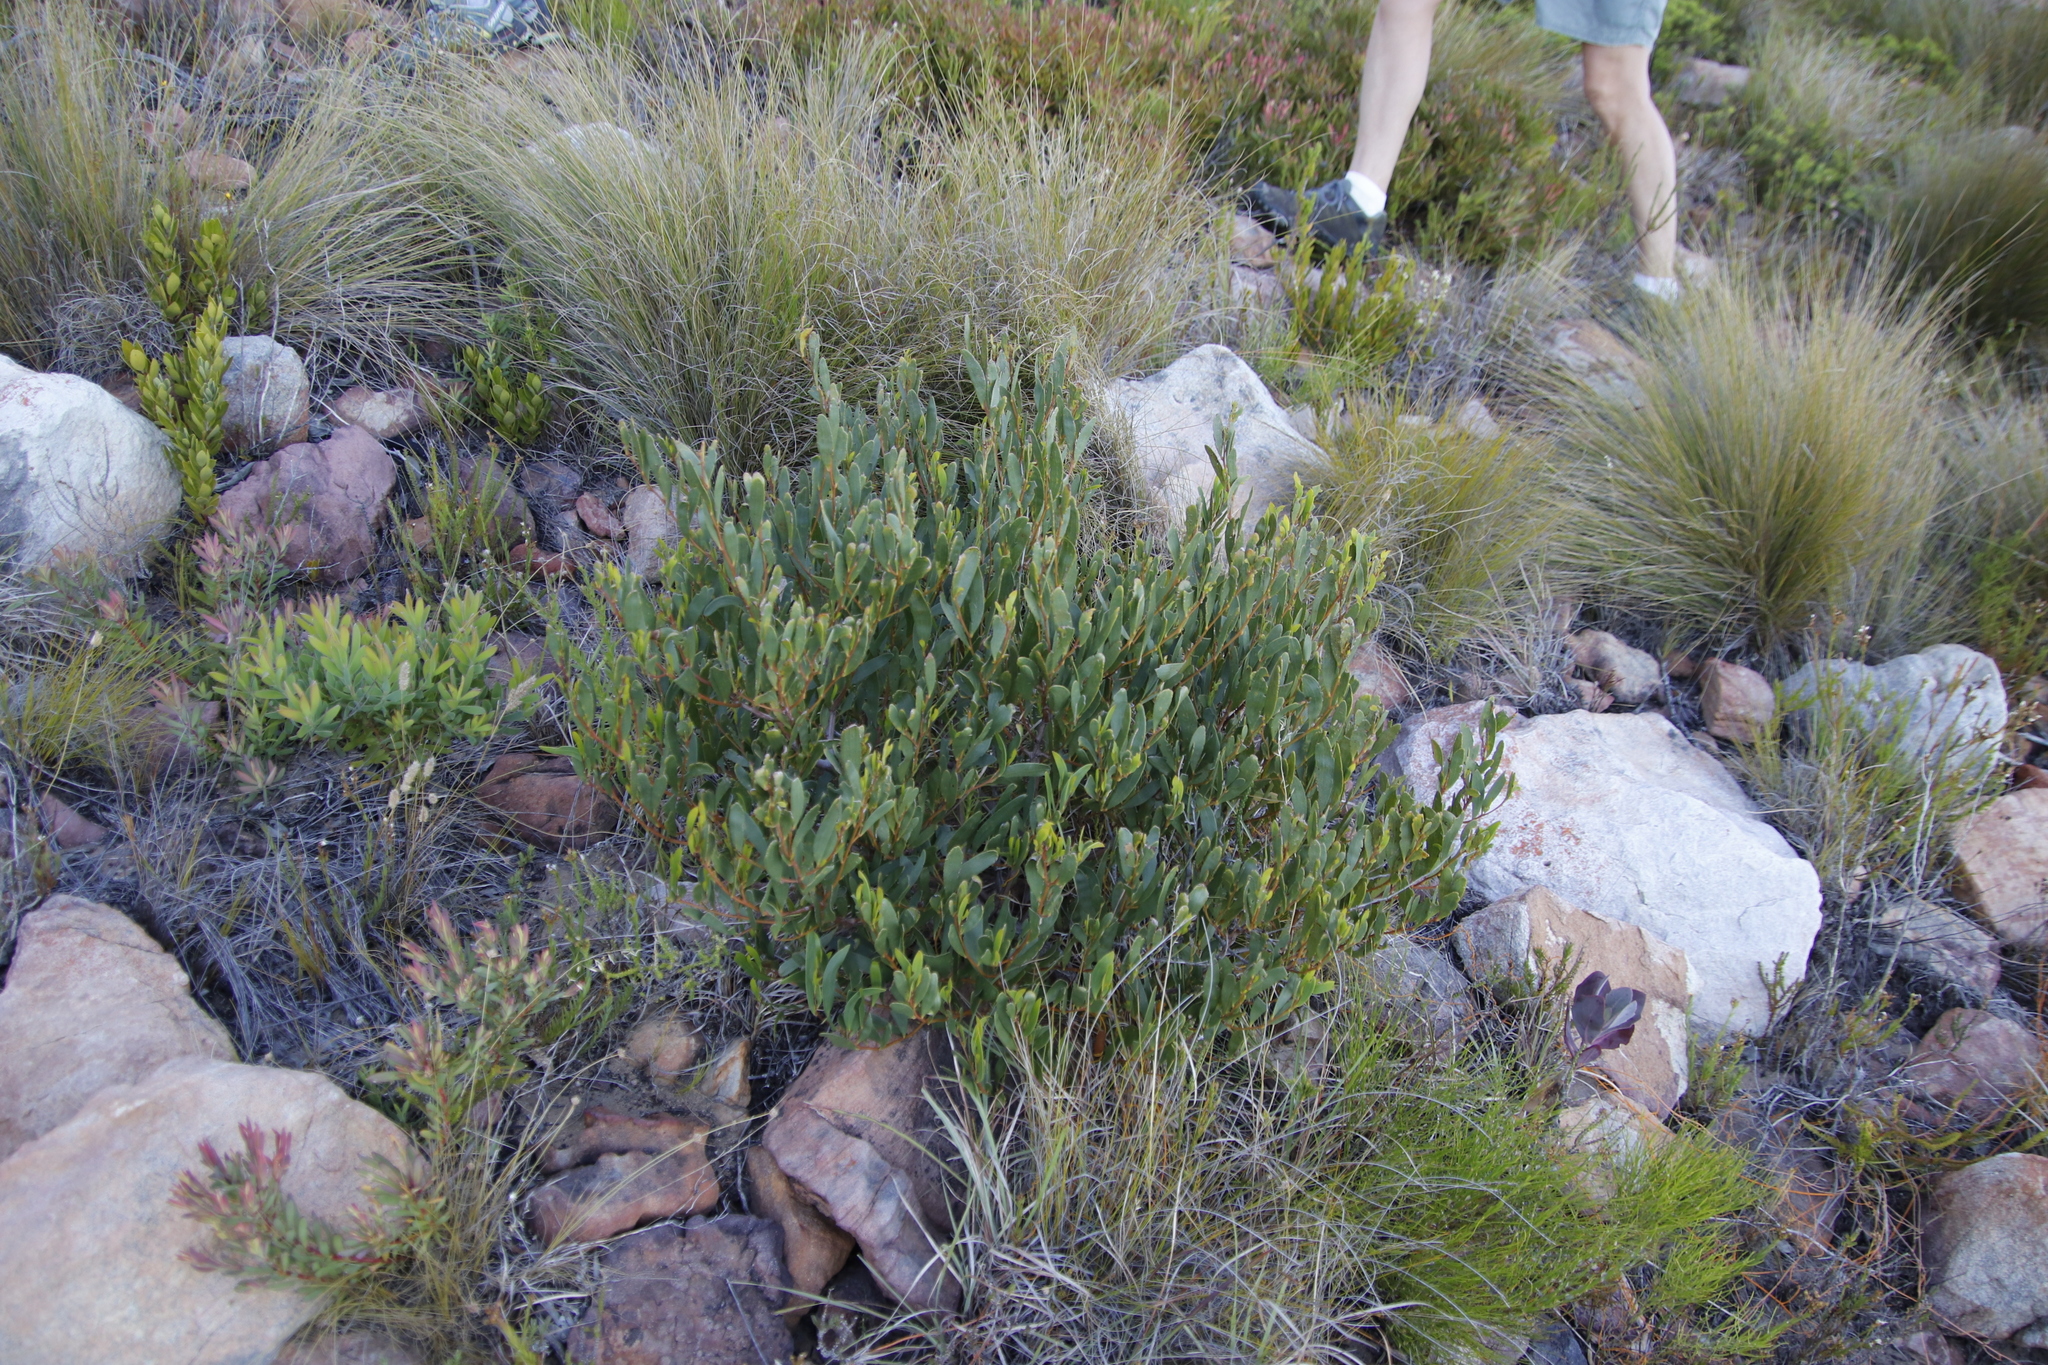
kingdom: Plantae
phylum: Tracheophyta
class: Magnoliopsida
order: Fabales
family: Fabaceae
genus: Acacia
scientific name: Acacia cyclops
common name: Coastal wattle
